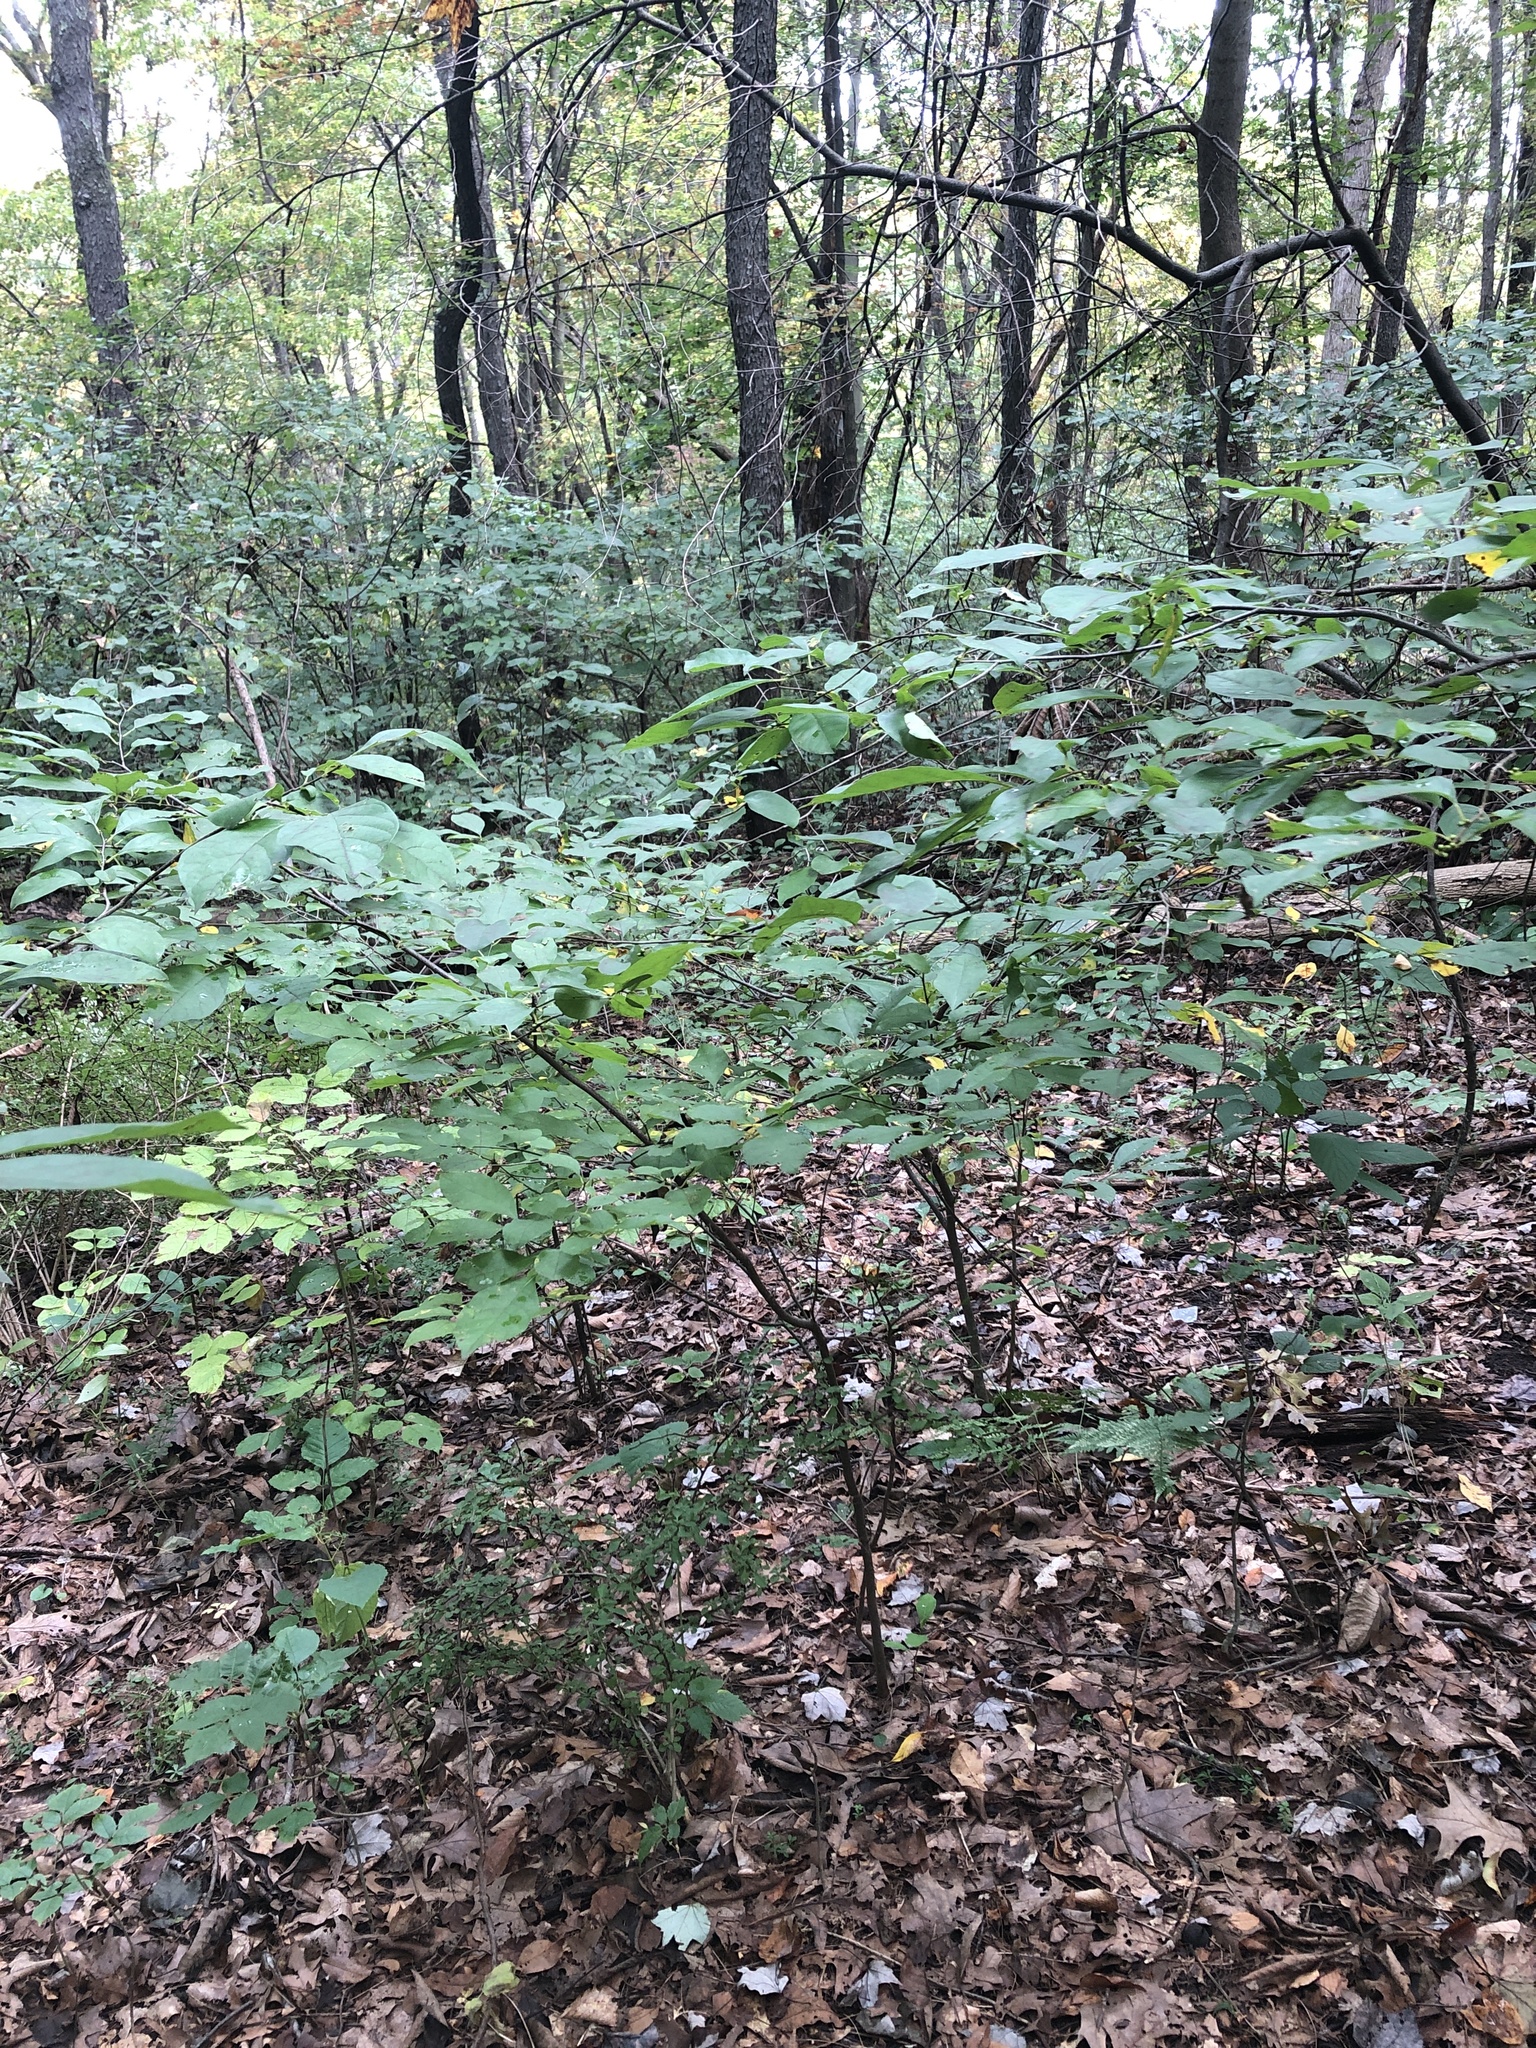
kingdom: Plantae
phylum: Tracheophyta
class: Magnoliopsida
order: Laurales
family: Lauraceae
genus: Lindera
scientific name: Lindera benzoin
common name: Spicebush
